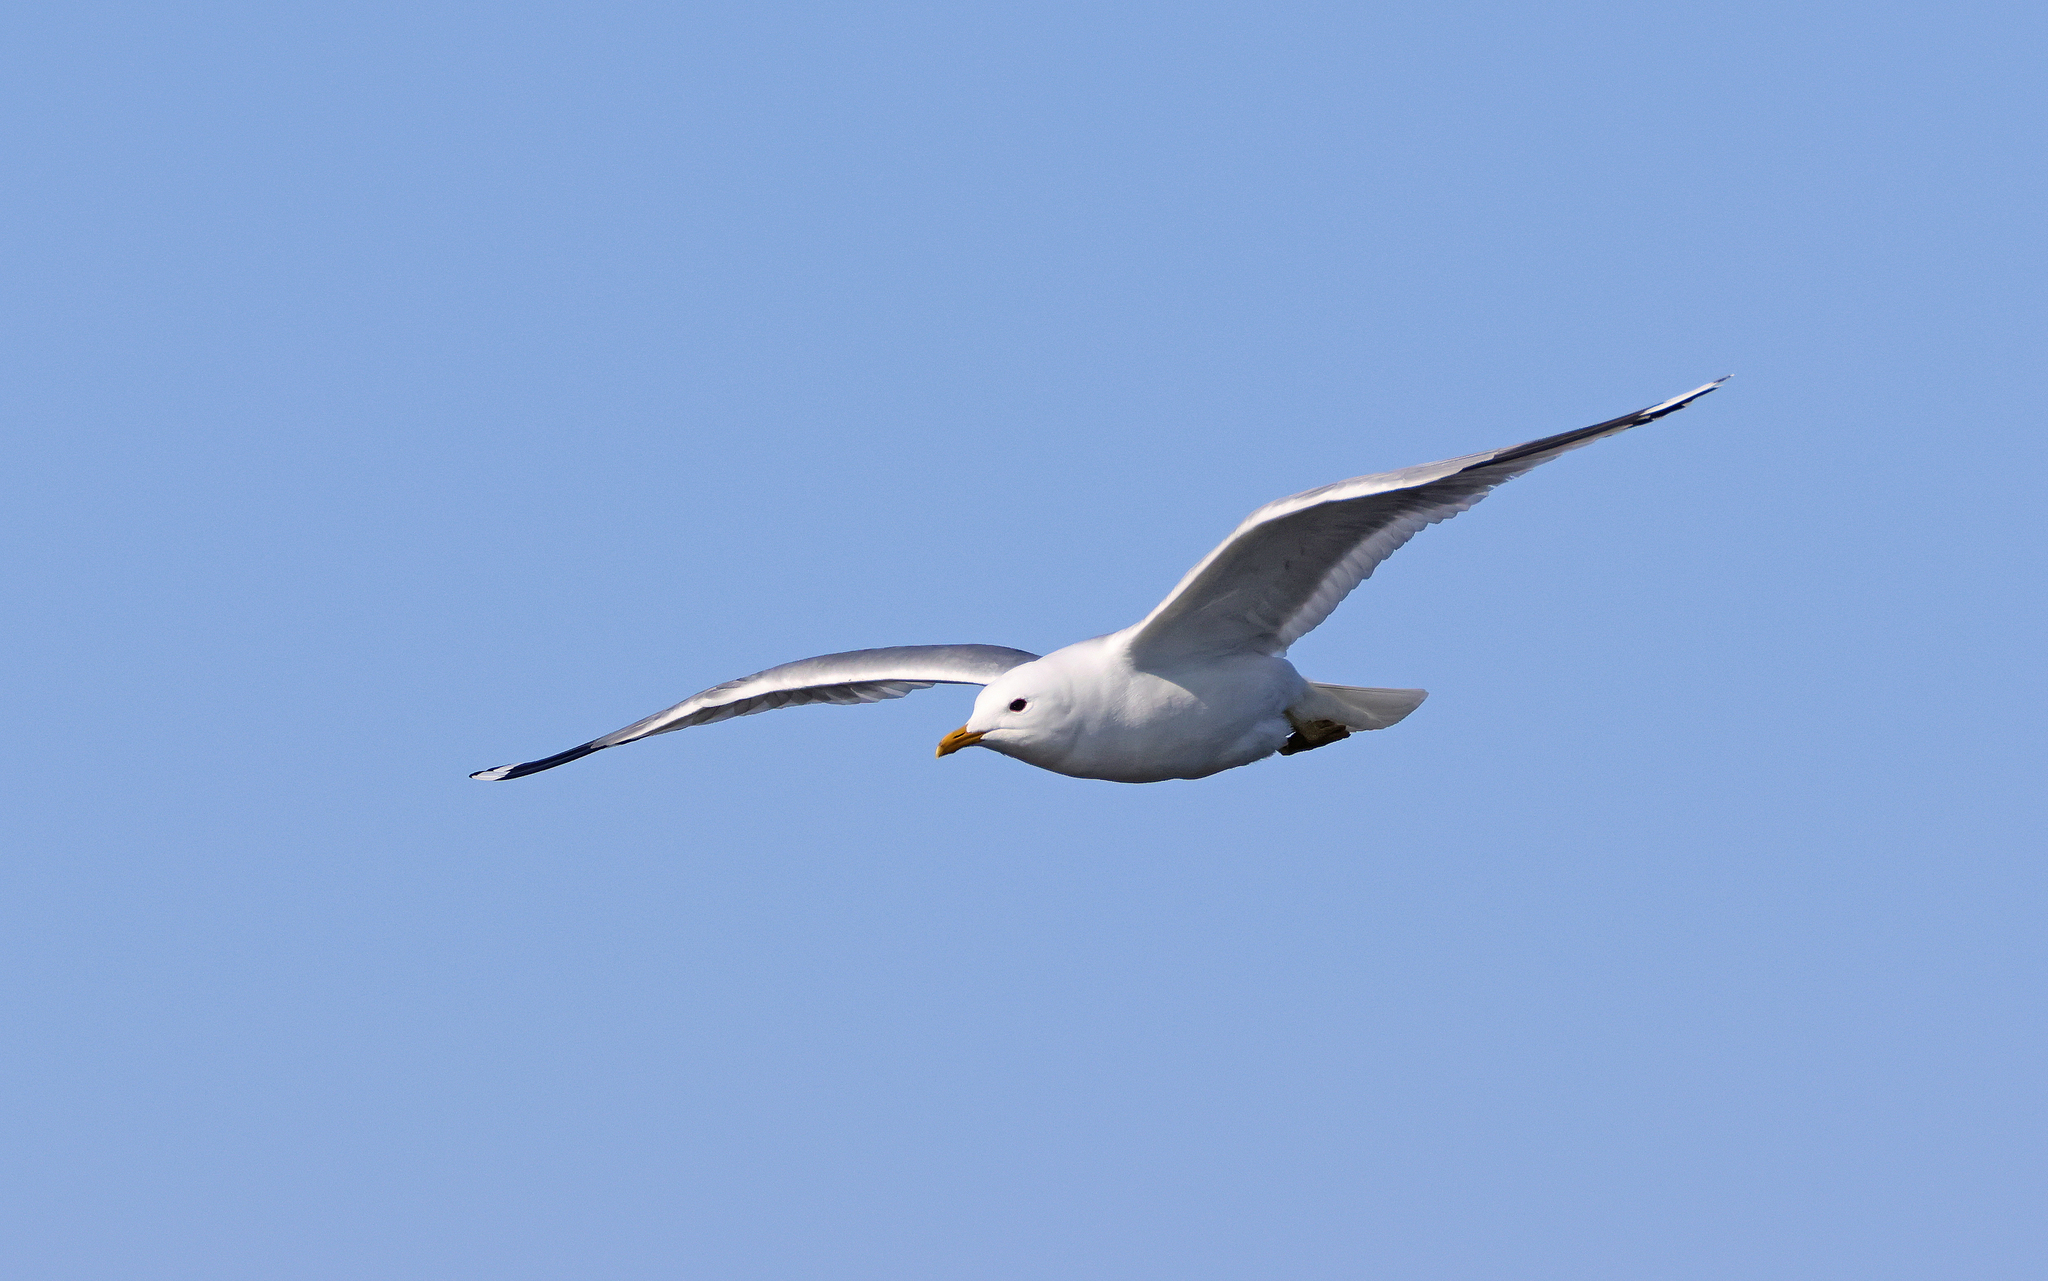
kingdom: Animalia
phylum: Chordata
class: Aves
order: Charadriiformes
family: Laridae
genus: Larus
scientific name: Larus canus
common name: Mew gull
